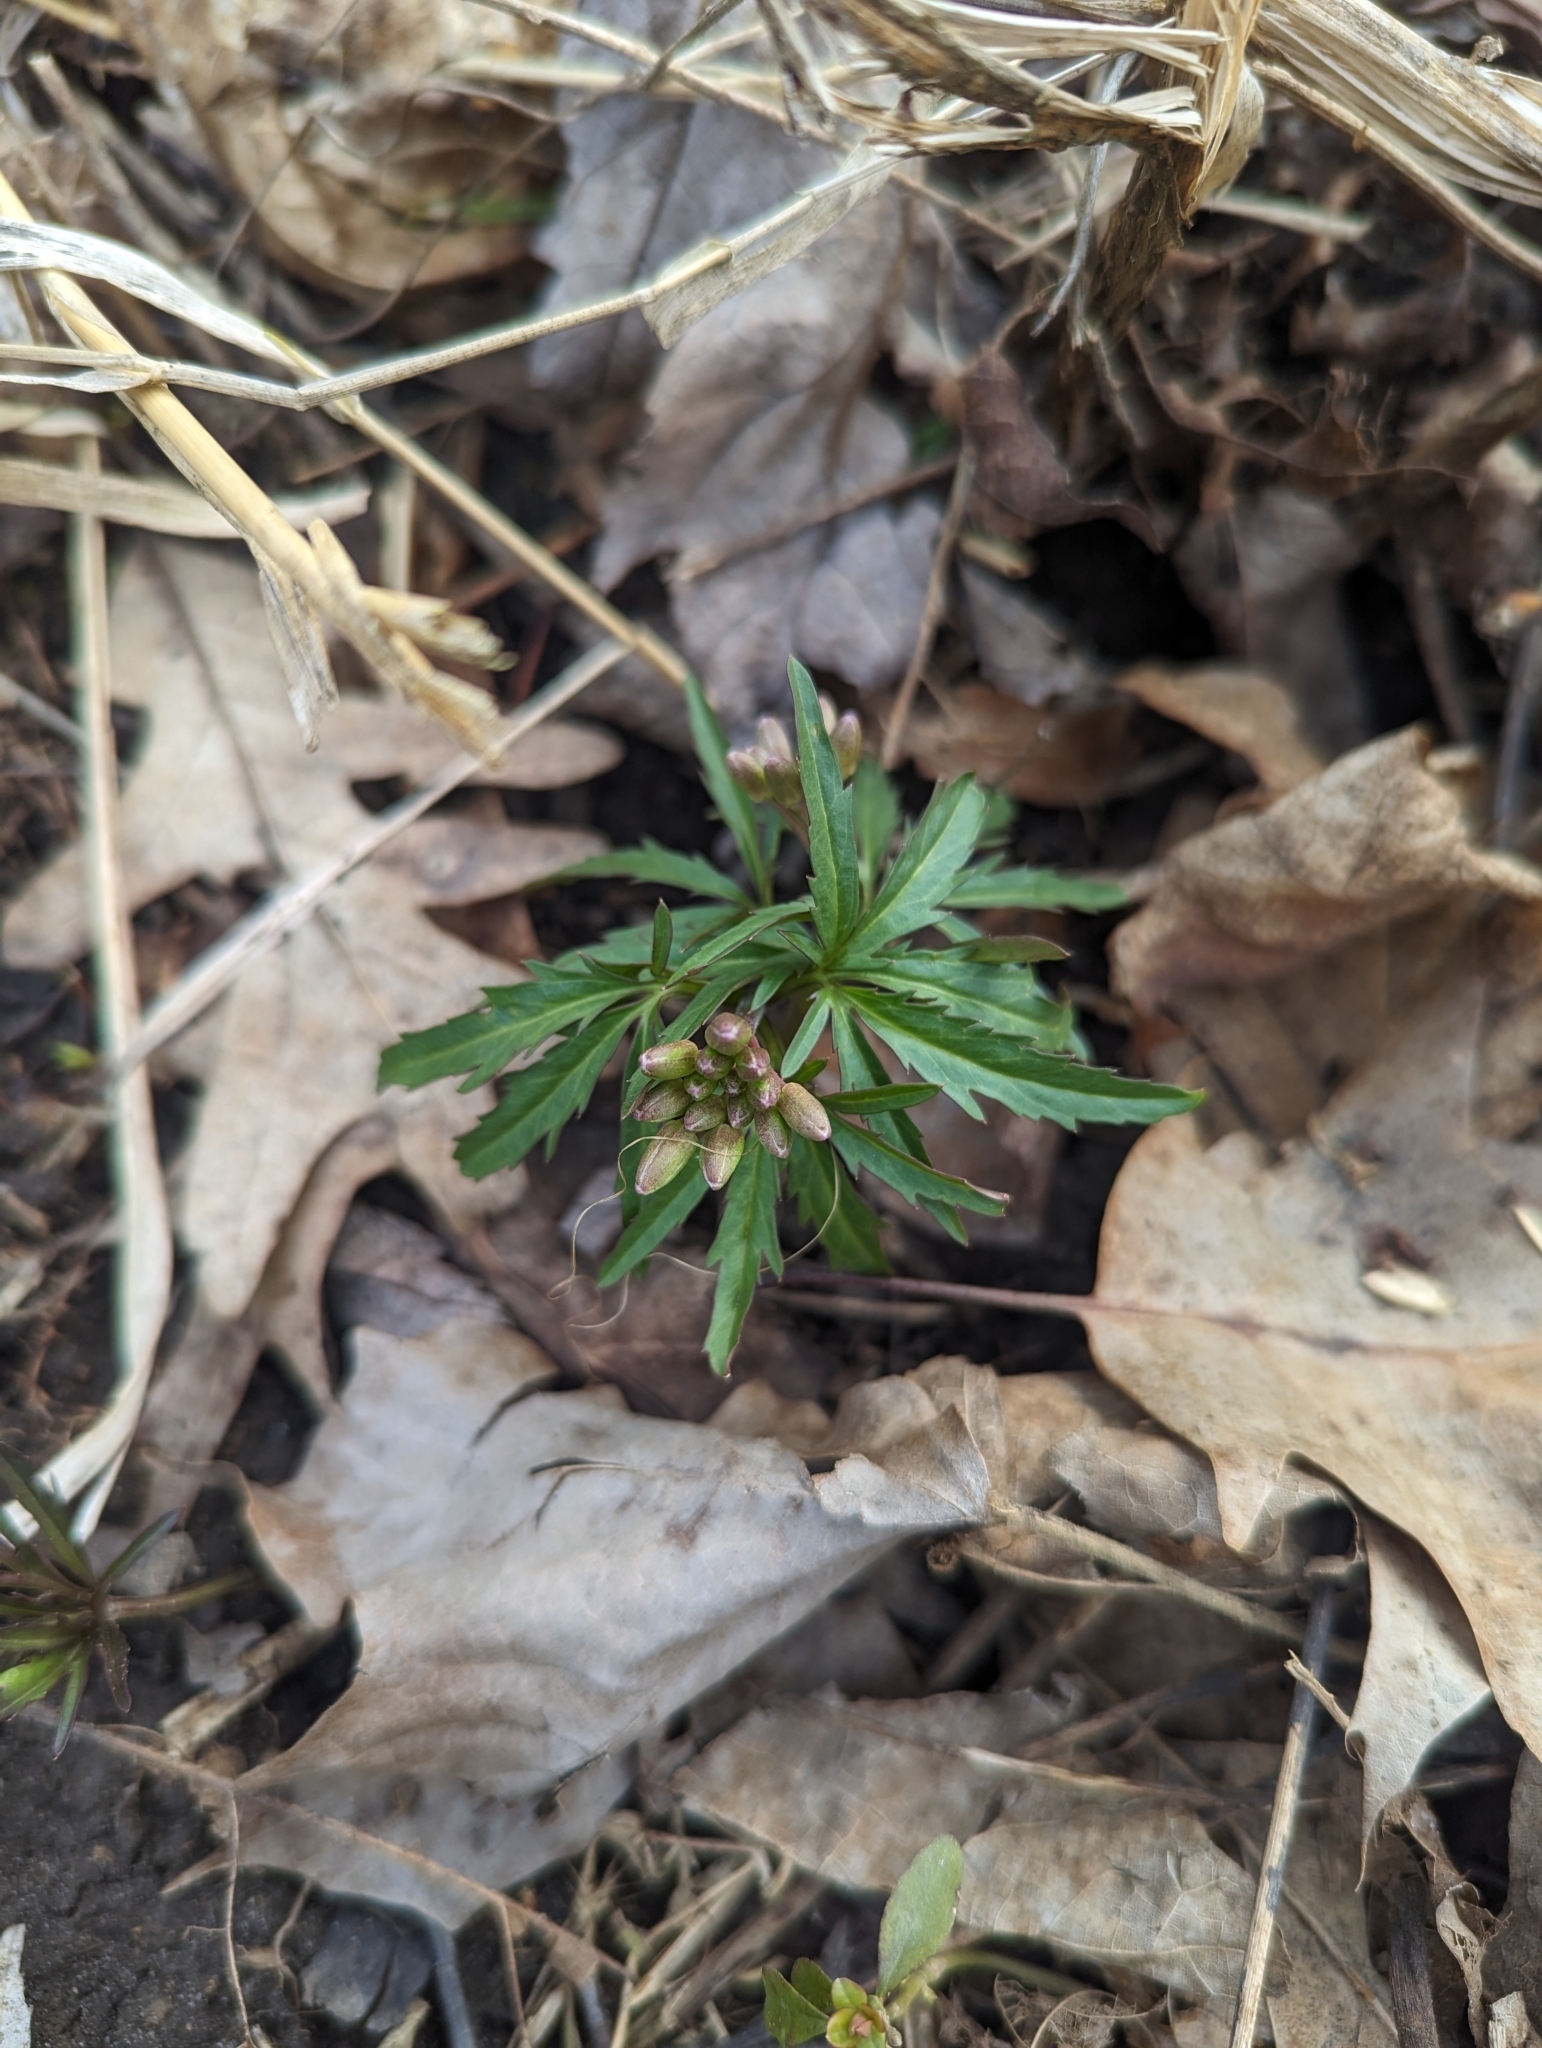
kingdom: Plantae
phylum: Tracheophyta
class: Magnoliopsida
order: Brassicales
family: Brassicaceae
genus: Cardamine
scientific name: Cardamine concatenata
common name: Cut-leaf toothcup
